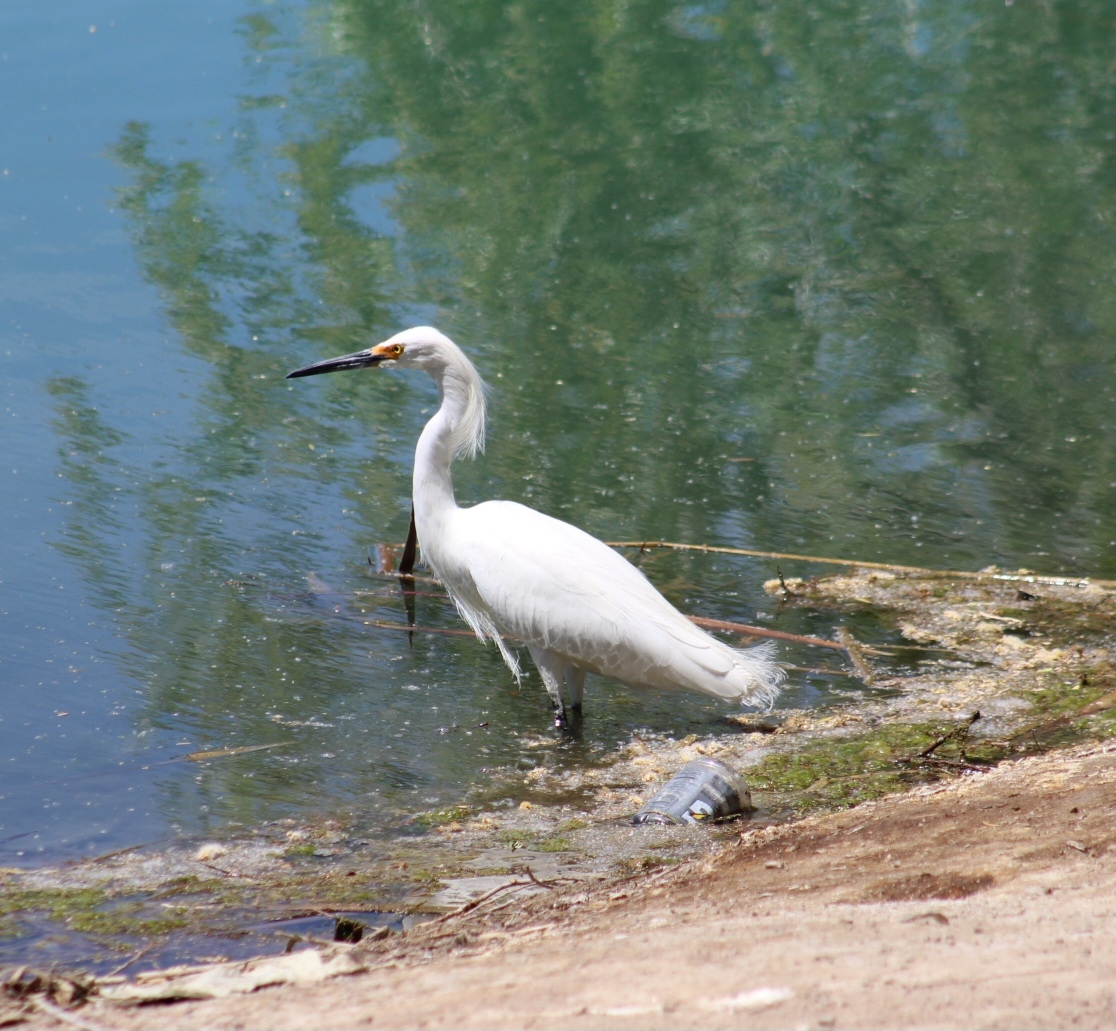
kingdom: Animalia
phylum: Chordata
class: Aves
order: Pelecaniformes
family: Ardeidae
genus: Egretta
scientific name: Egretta thula
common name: Snowy egret
